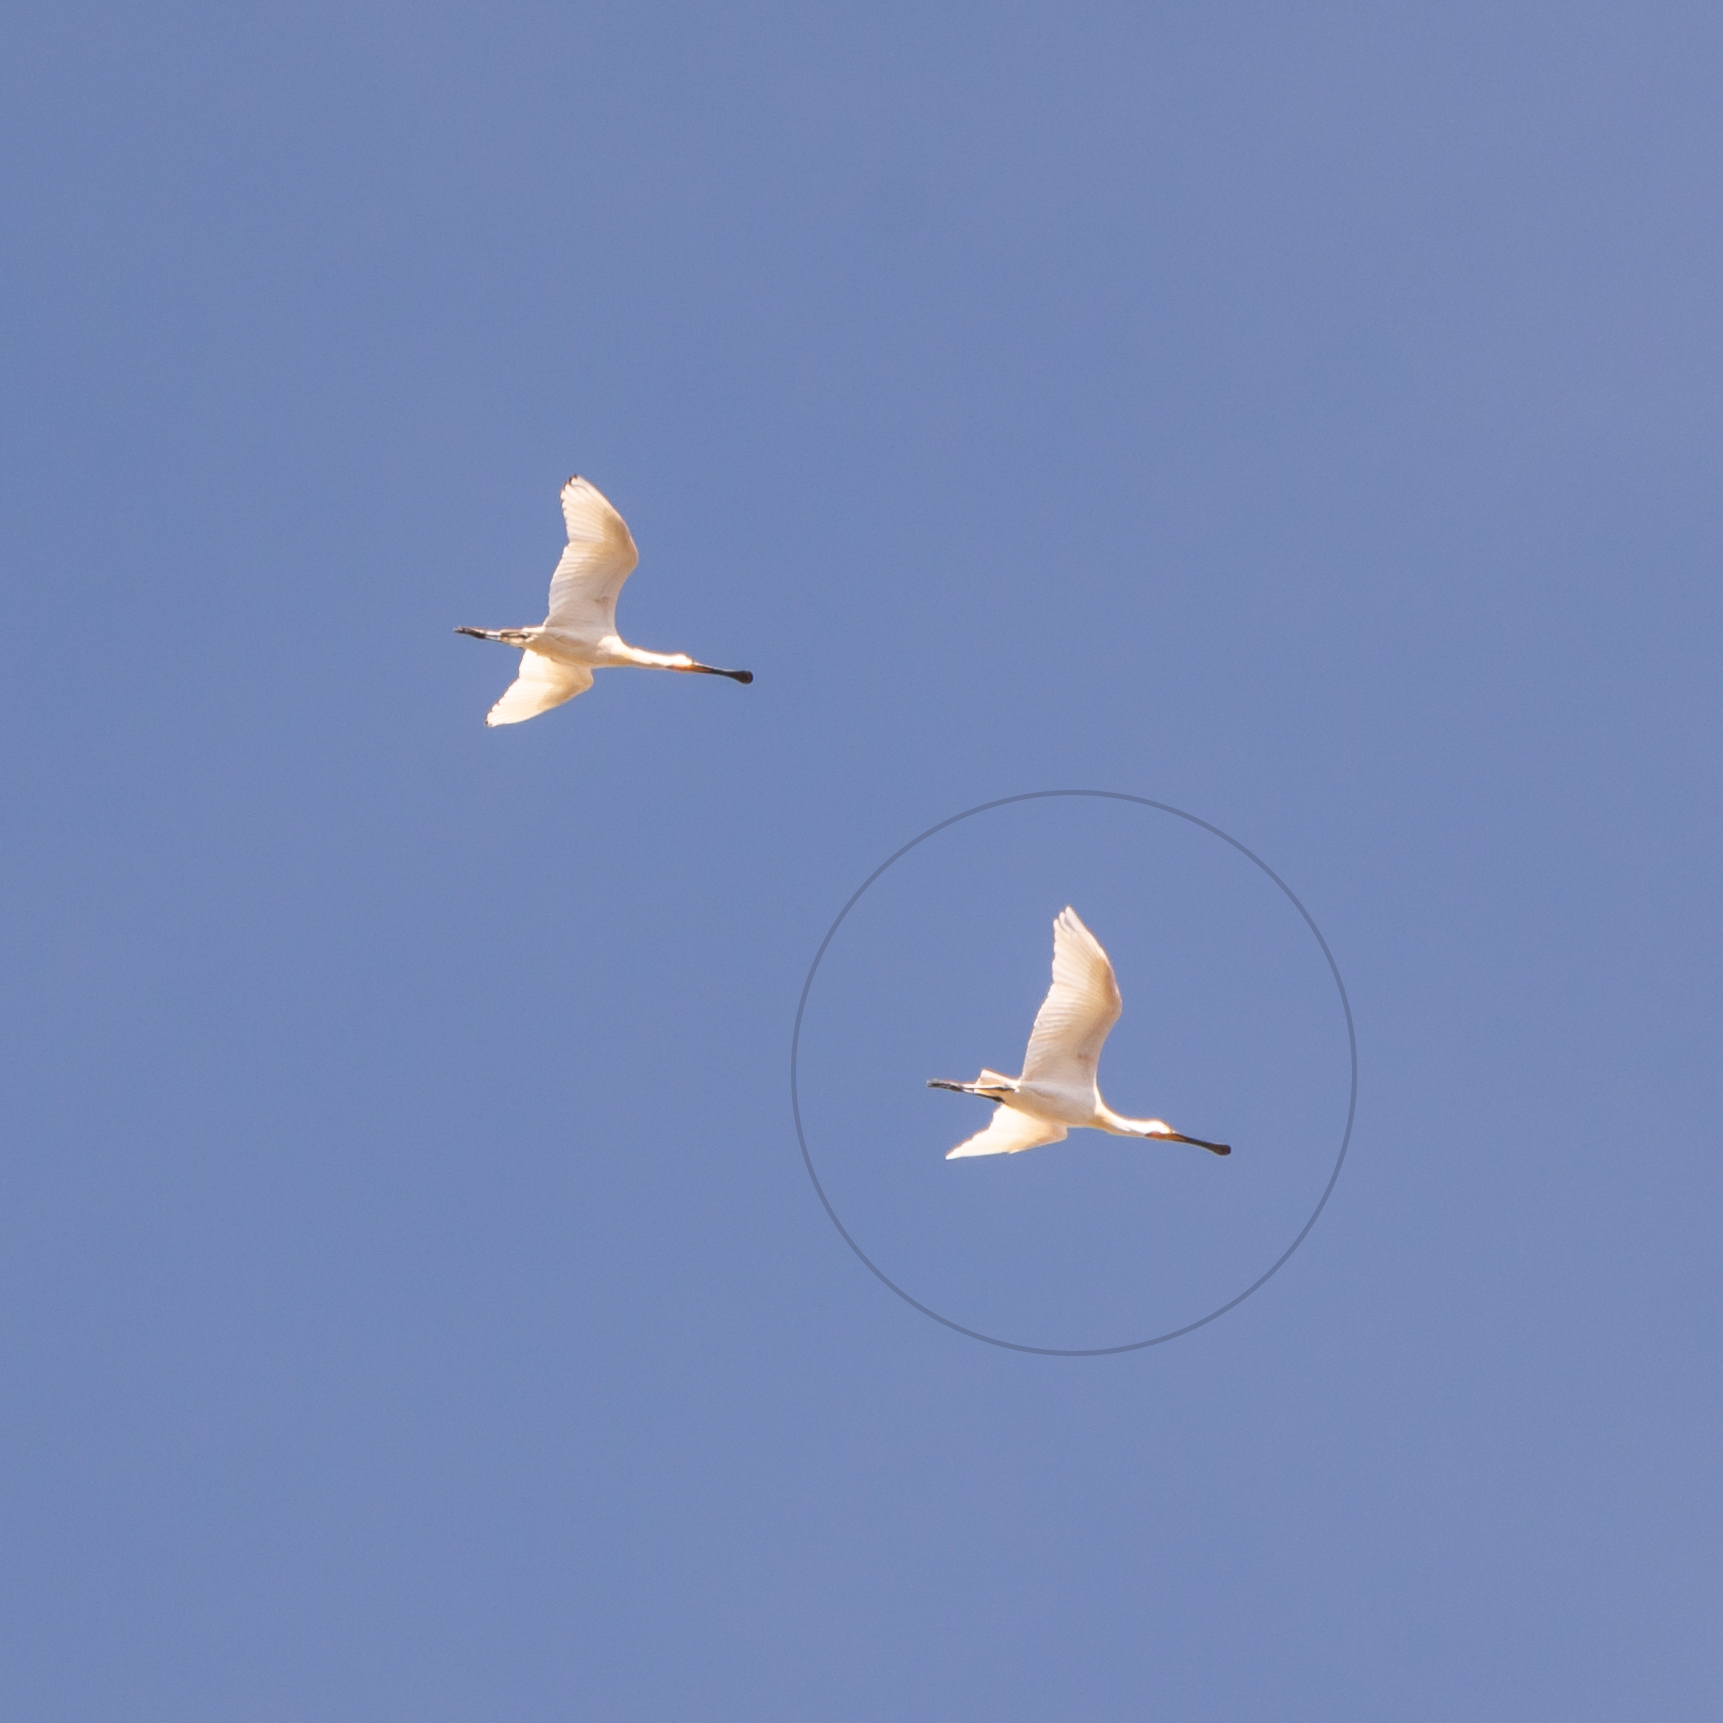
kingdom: Animalia
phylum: Chordata
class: Aves
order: Pelecaniformes
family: Threskiornithidae
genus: Platalea
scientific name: Platalea leucorodia
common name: Eurasian spoonbill
